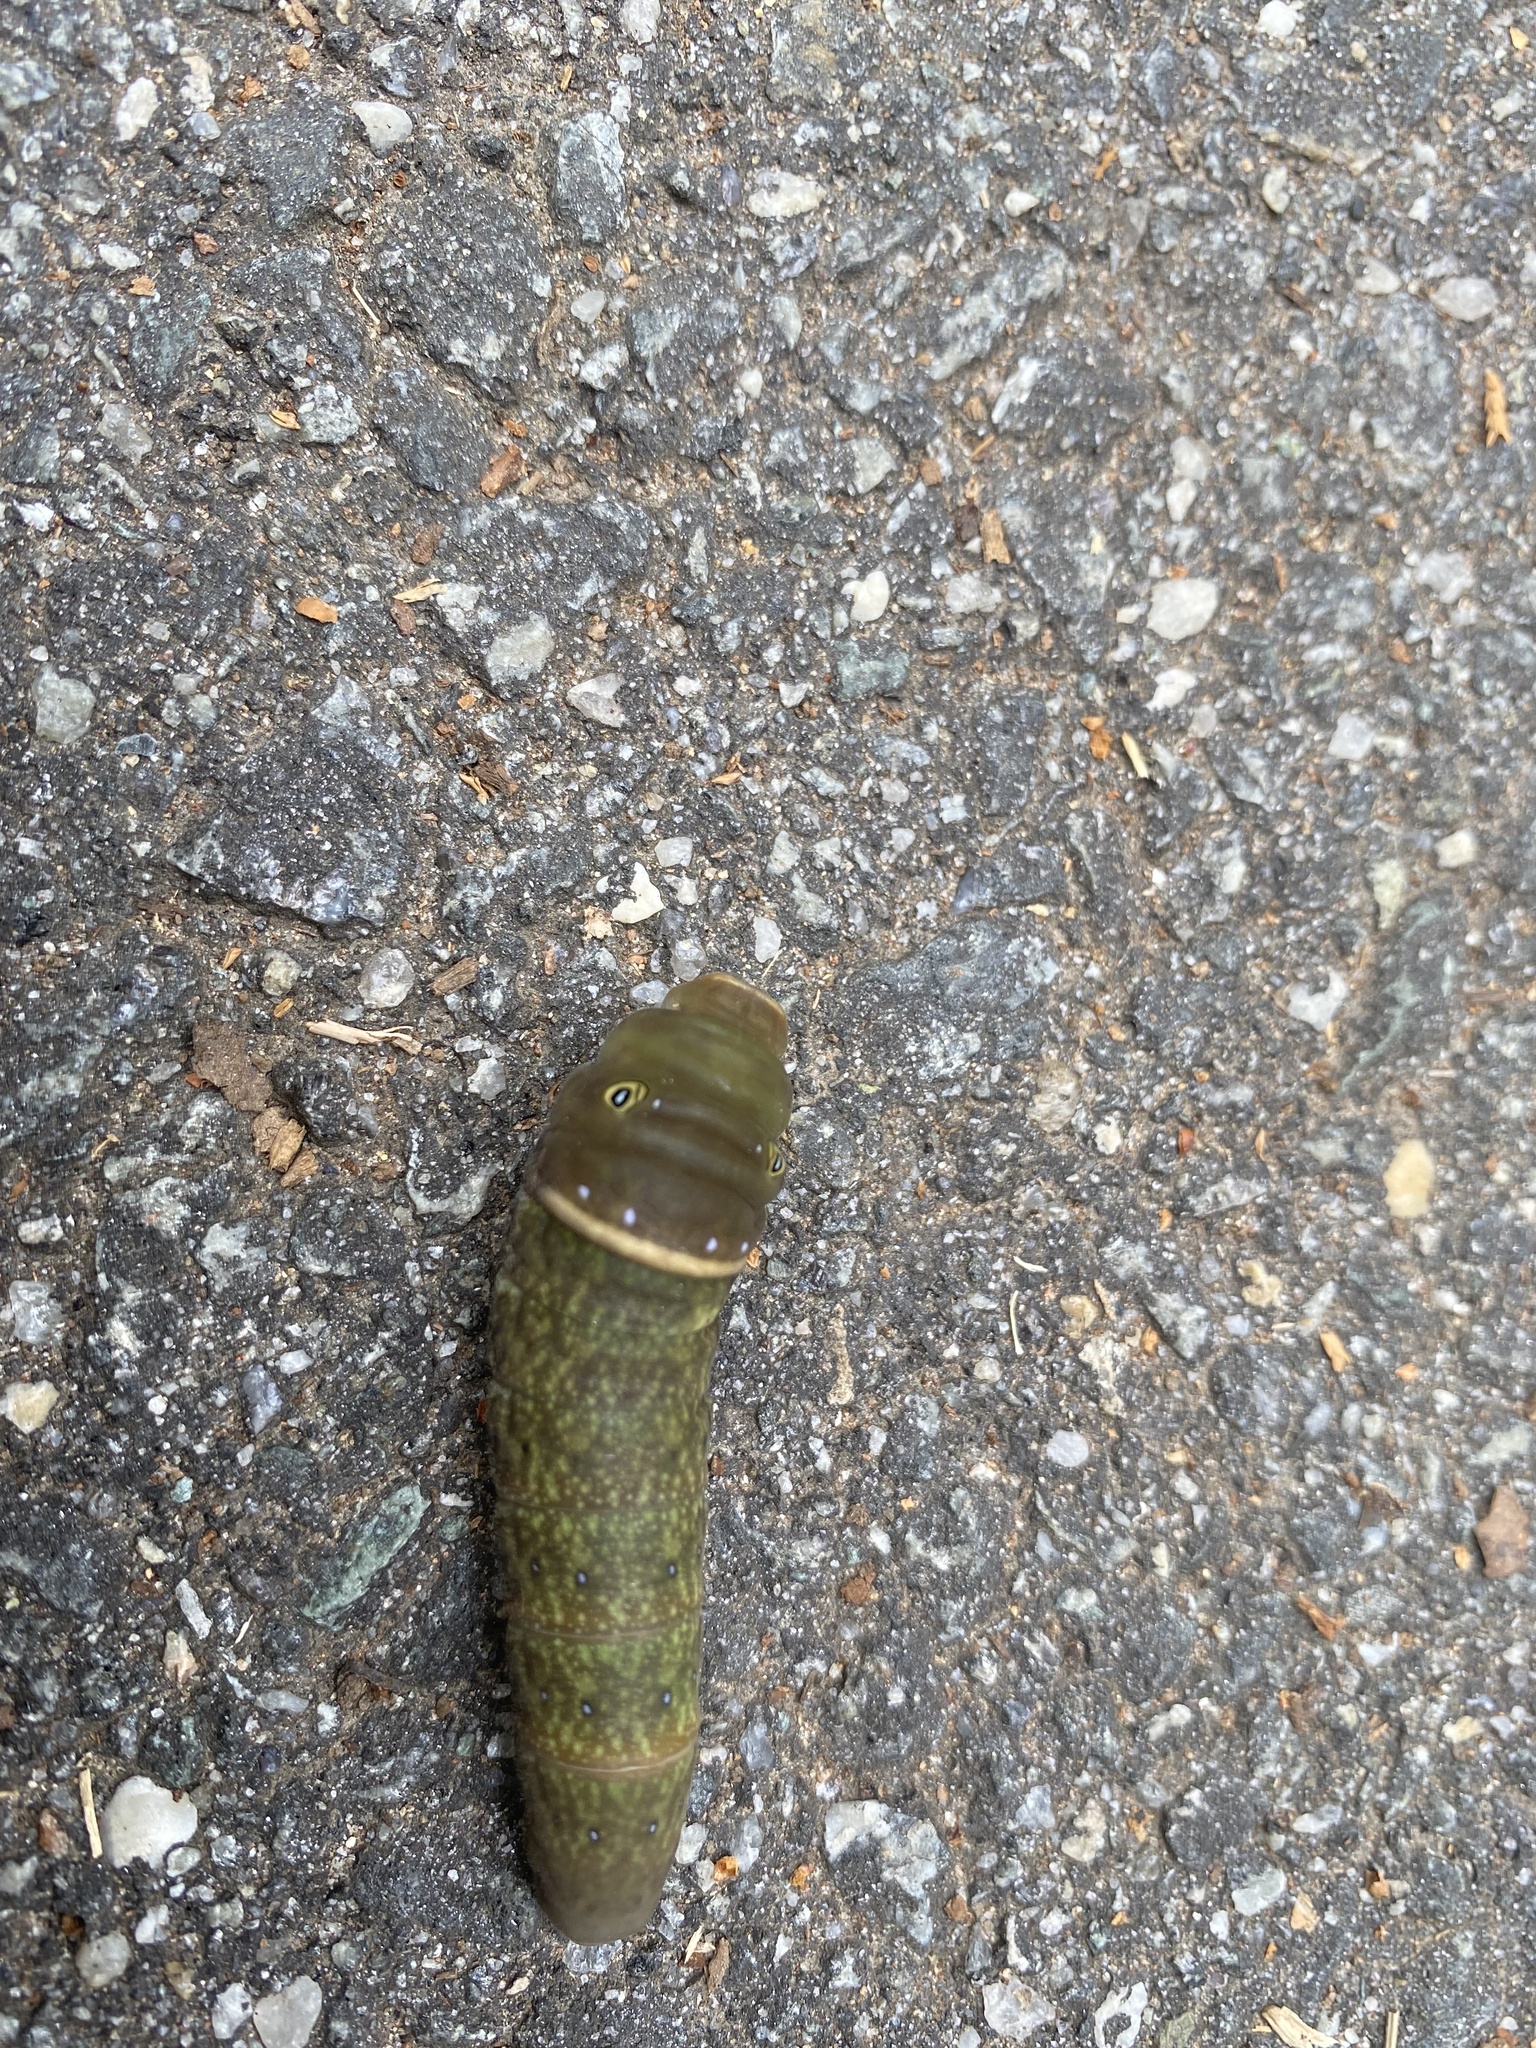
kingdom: Animalia
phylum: Arthropoda
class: Insecta
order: Lepidoptera
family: Papilionidae
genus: Papilio
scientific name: Papilio glaucus
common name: Tiger swallowtail
